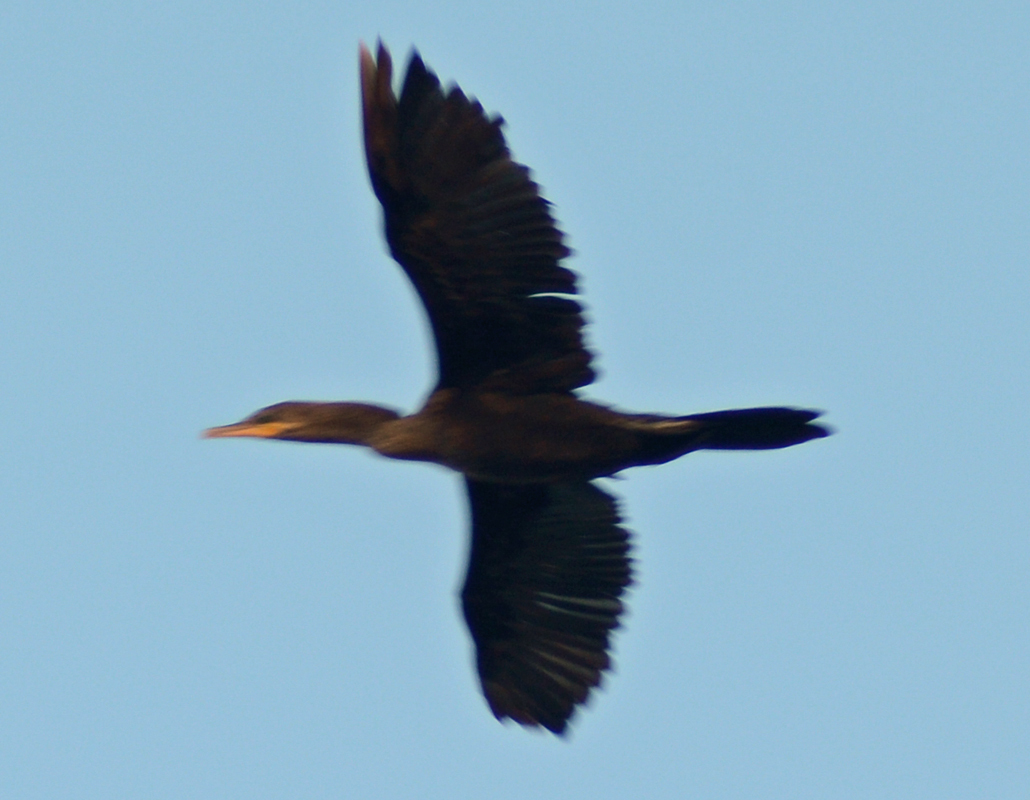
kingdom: Animalia
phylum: Chordata
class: Aves
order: Suliformes
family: Phalacrocoracidae
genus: Phalacrocorax
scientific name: Phalacrocorax brasilianus
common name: Neotropic cormorant
